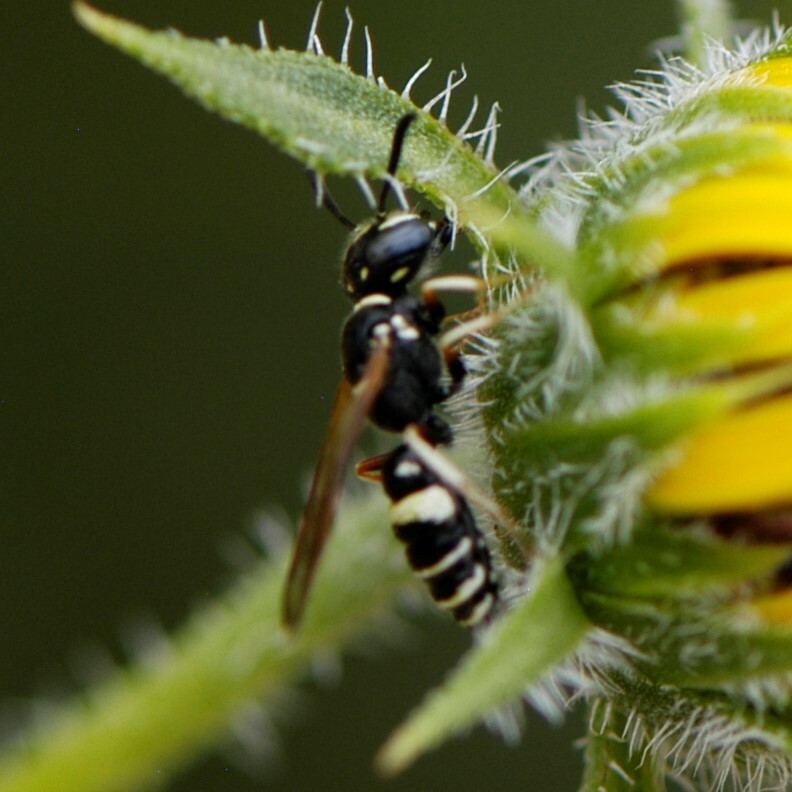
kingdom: Animalia
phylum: Arthropoda
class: Insecta
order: Hymenoptera
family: Crabronidae
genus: Philanthus
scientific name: Philanthus gibbosus
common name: Humped beewolf
